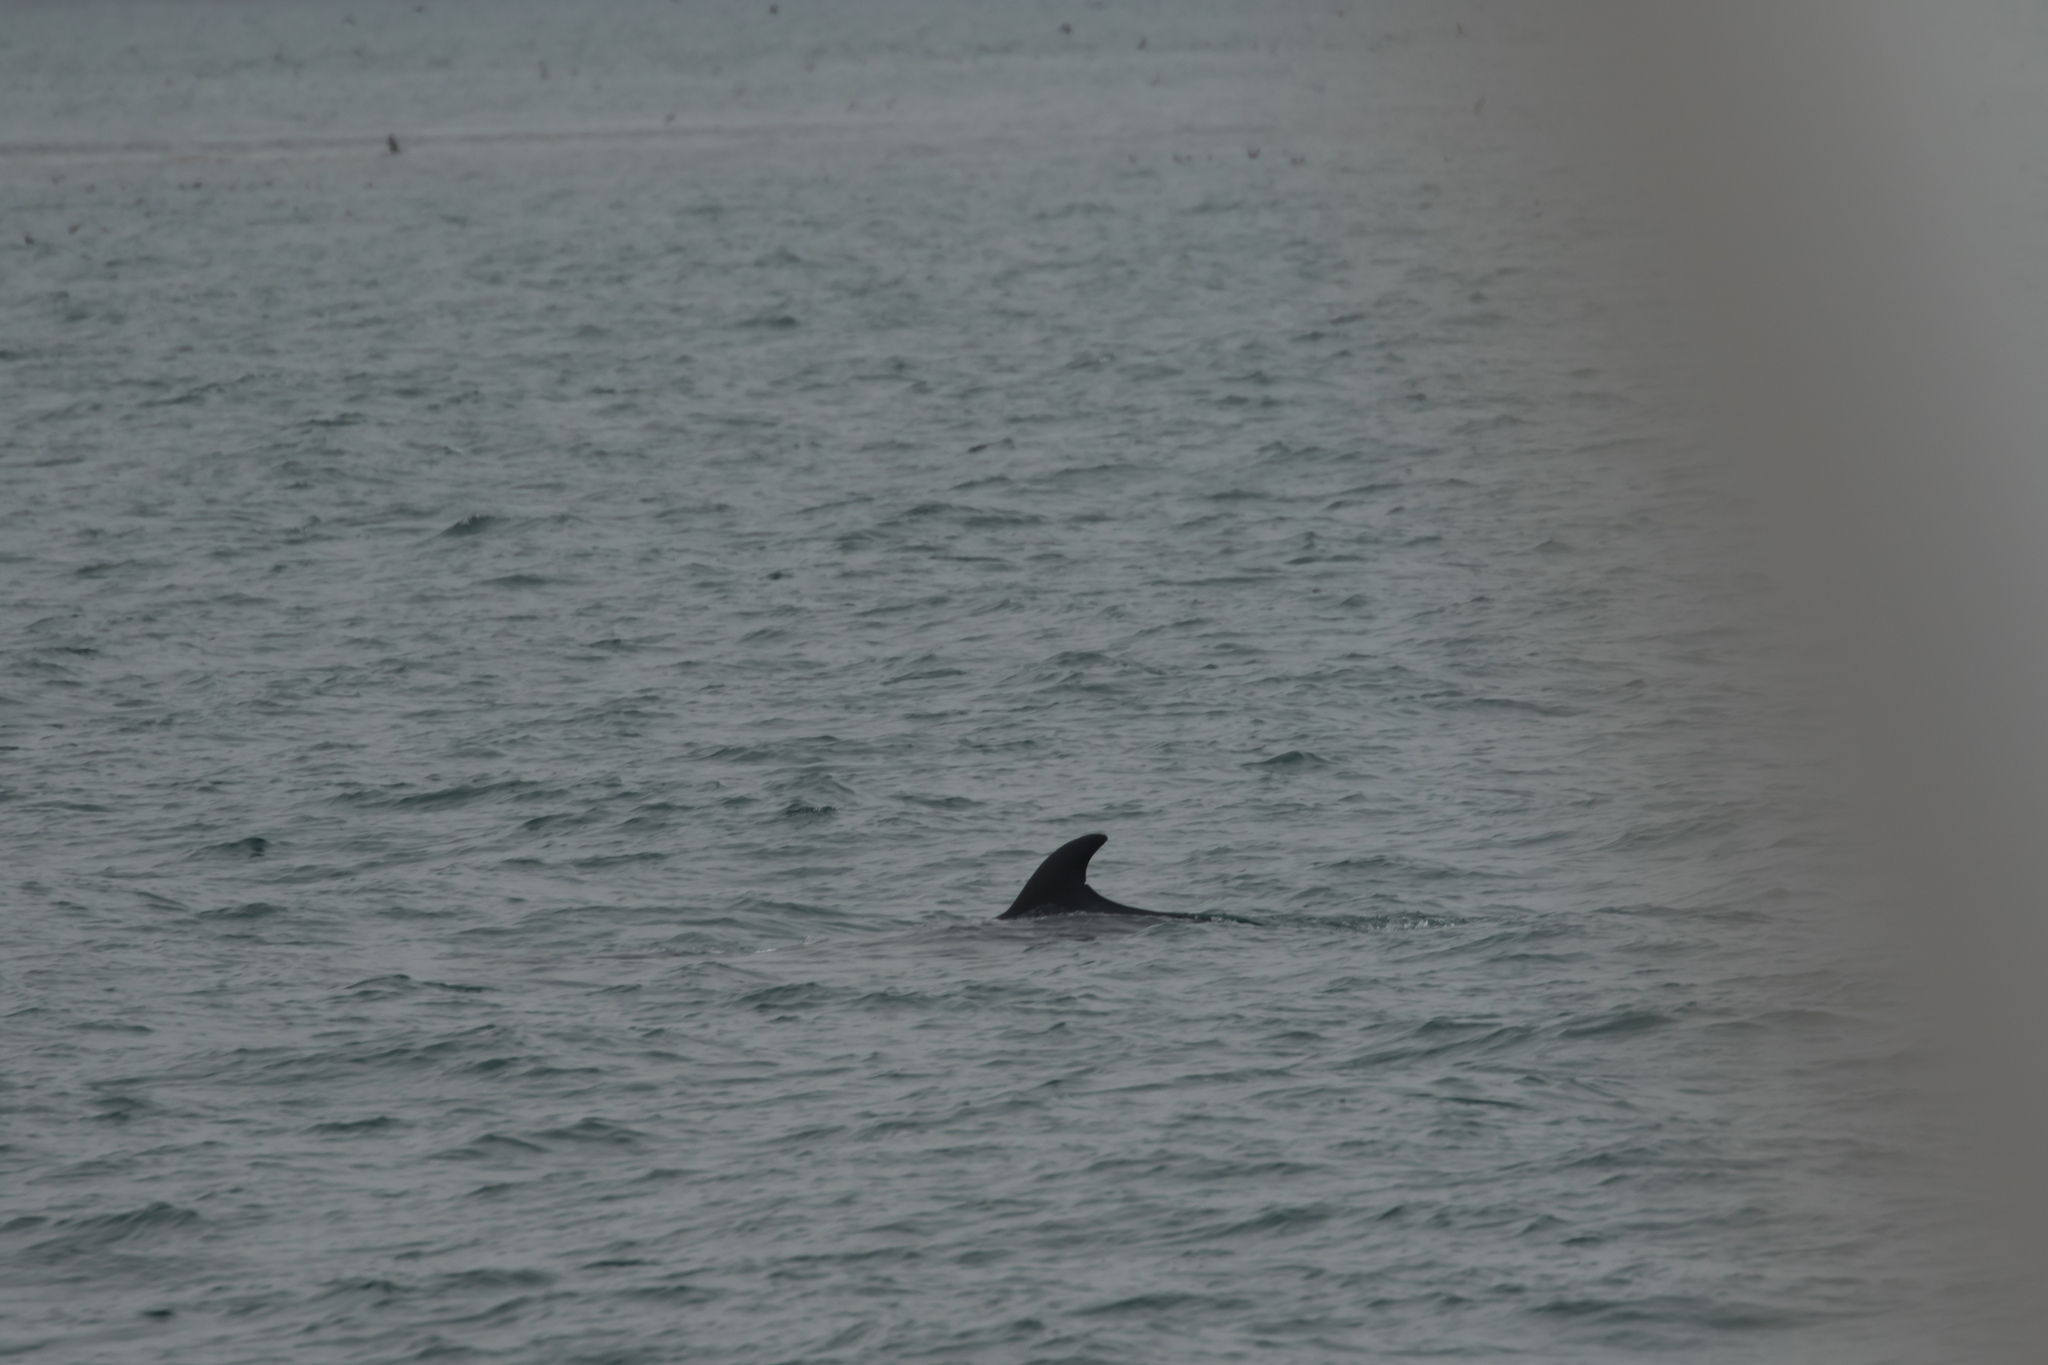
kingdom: Animalia
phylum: Chordata
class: Mammalia
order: Cetacea
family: Balaenopteridae
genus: Balaenoptera
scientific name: Balaenoptera acutorostrata
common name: Common minke whale
